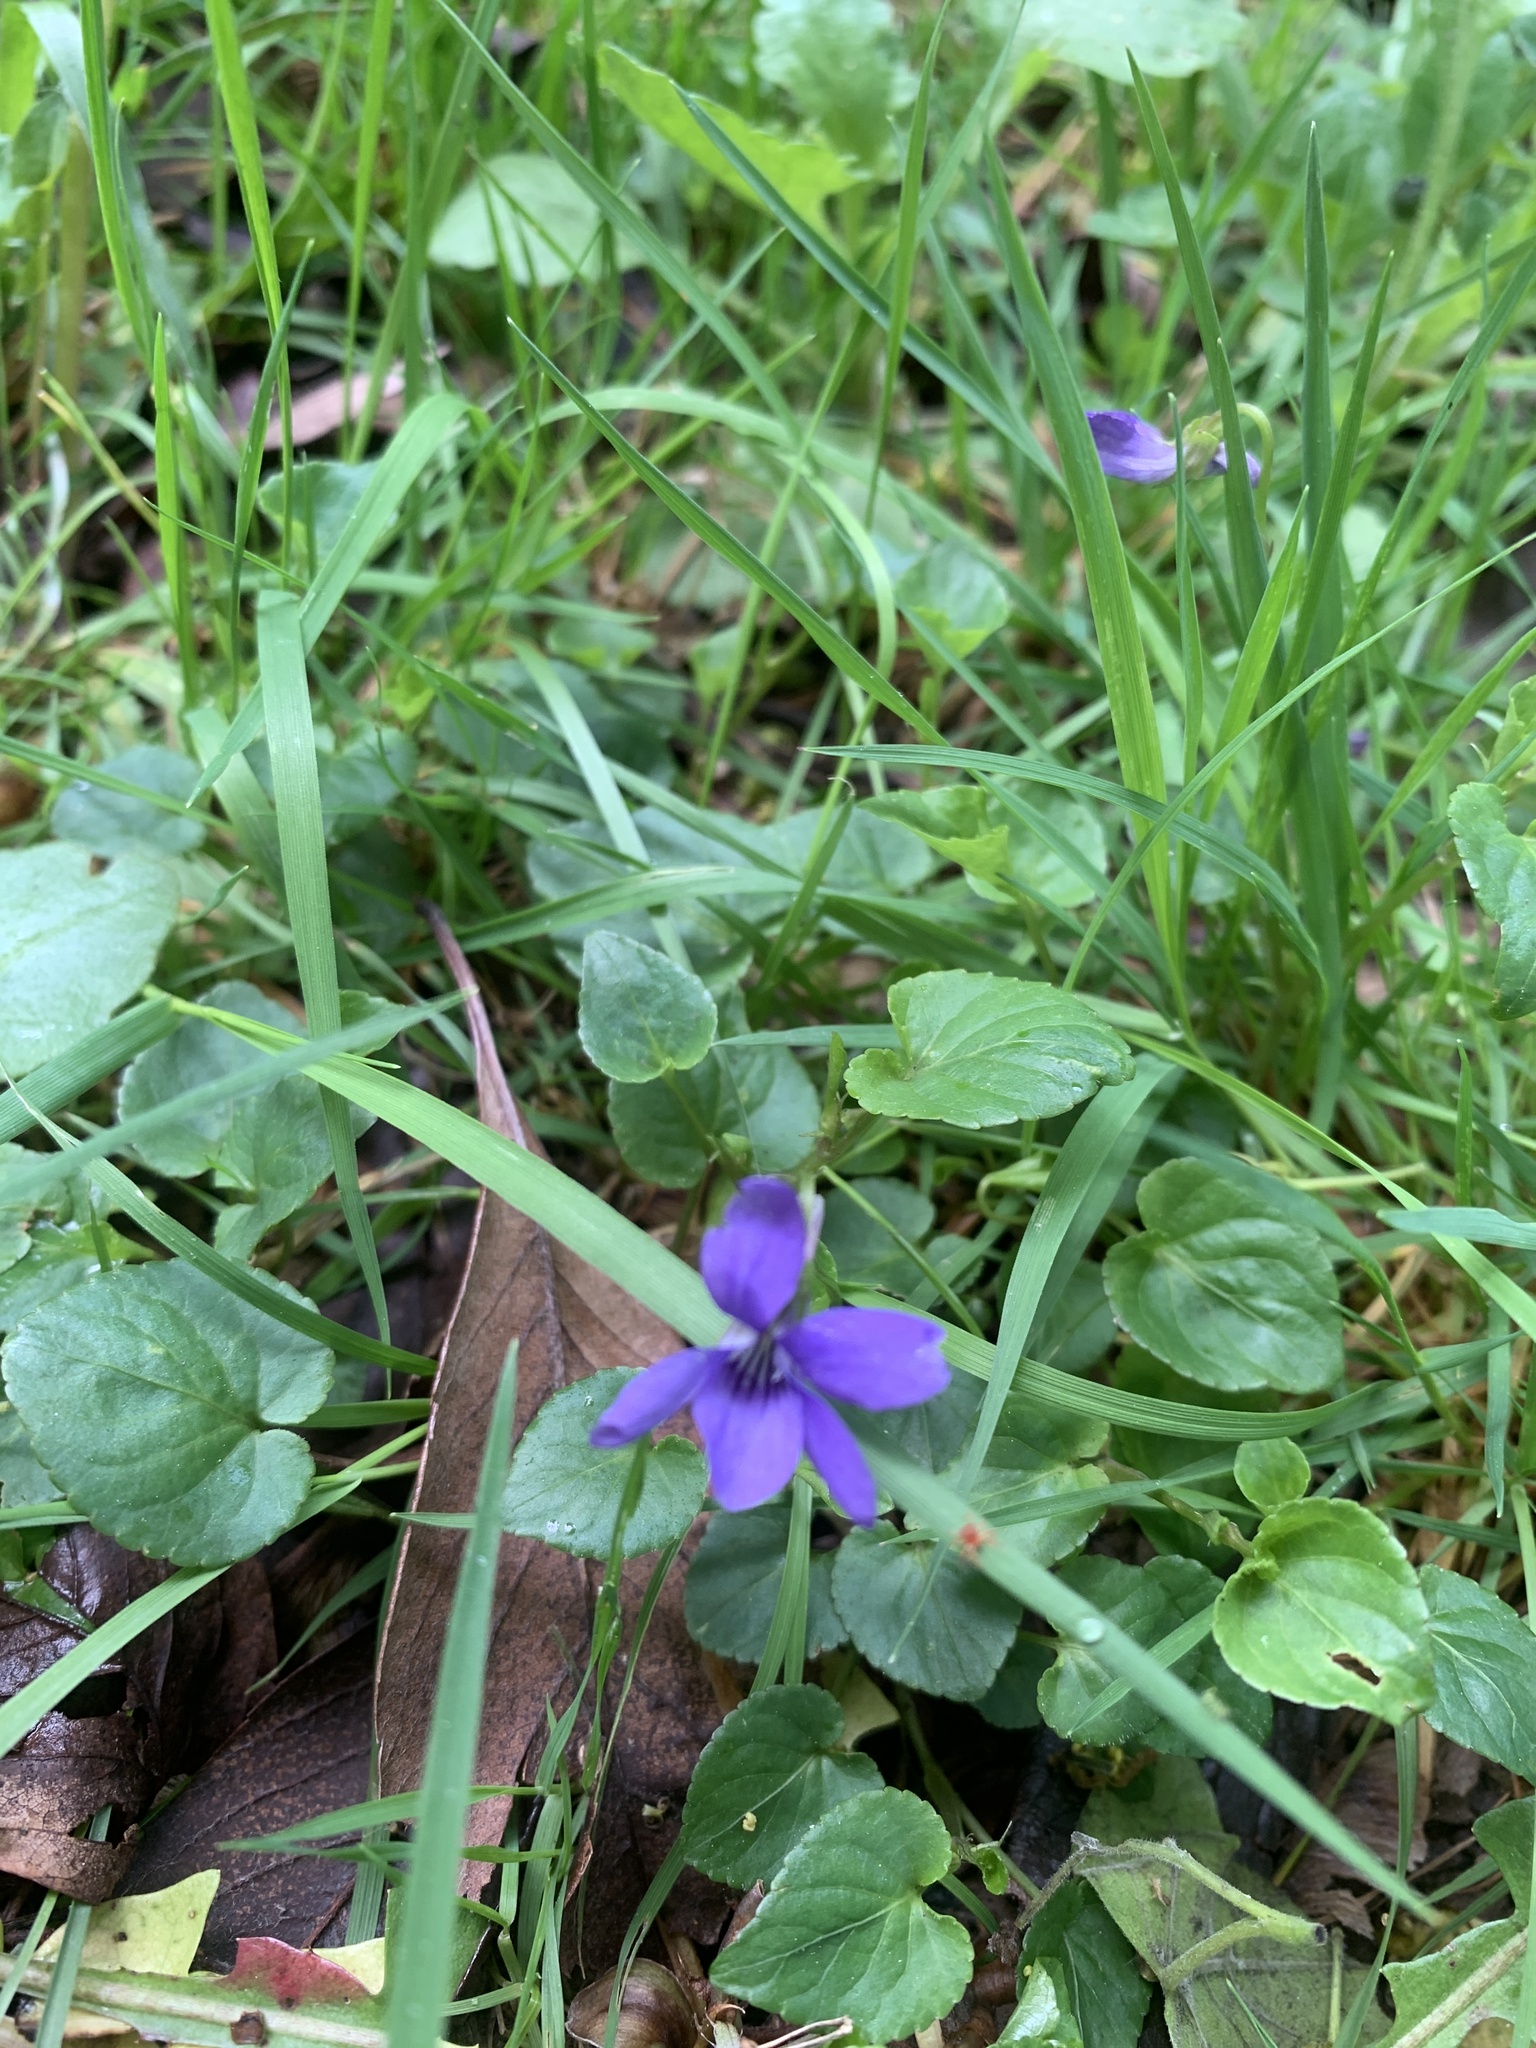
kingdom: Plantae
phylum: Tracheophyta
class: Magnoliopsida
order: Malpighiales
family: Violaceae
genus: Viola
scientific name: Viola riviniana
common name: Common dog-violet
